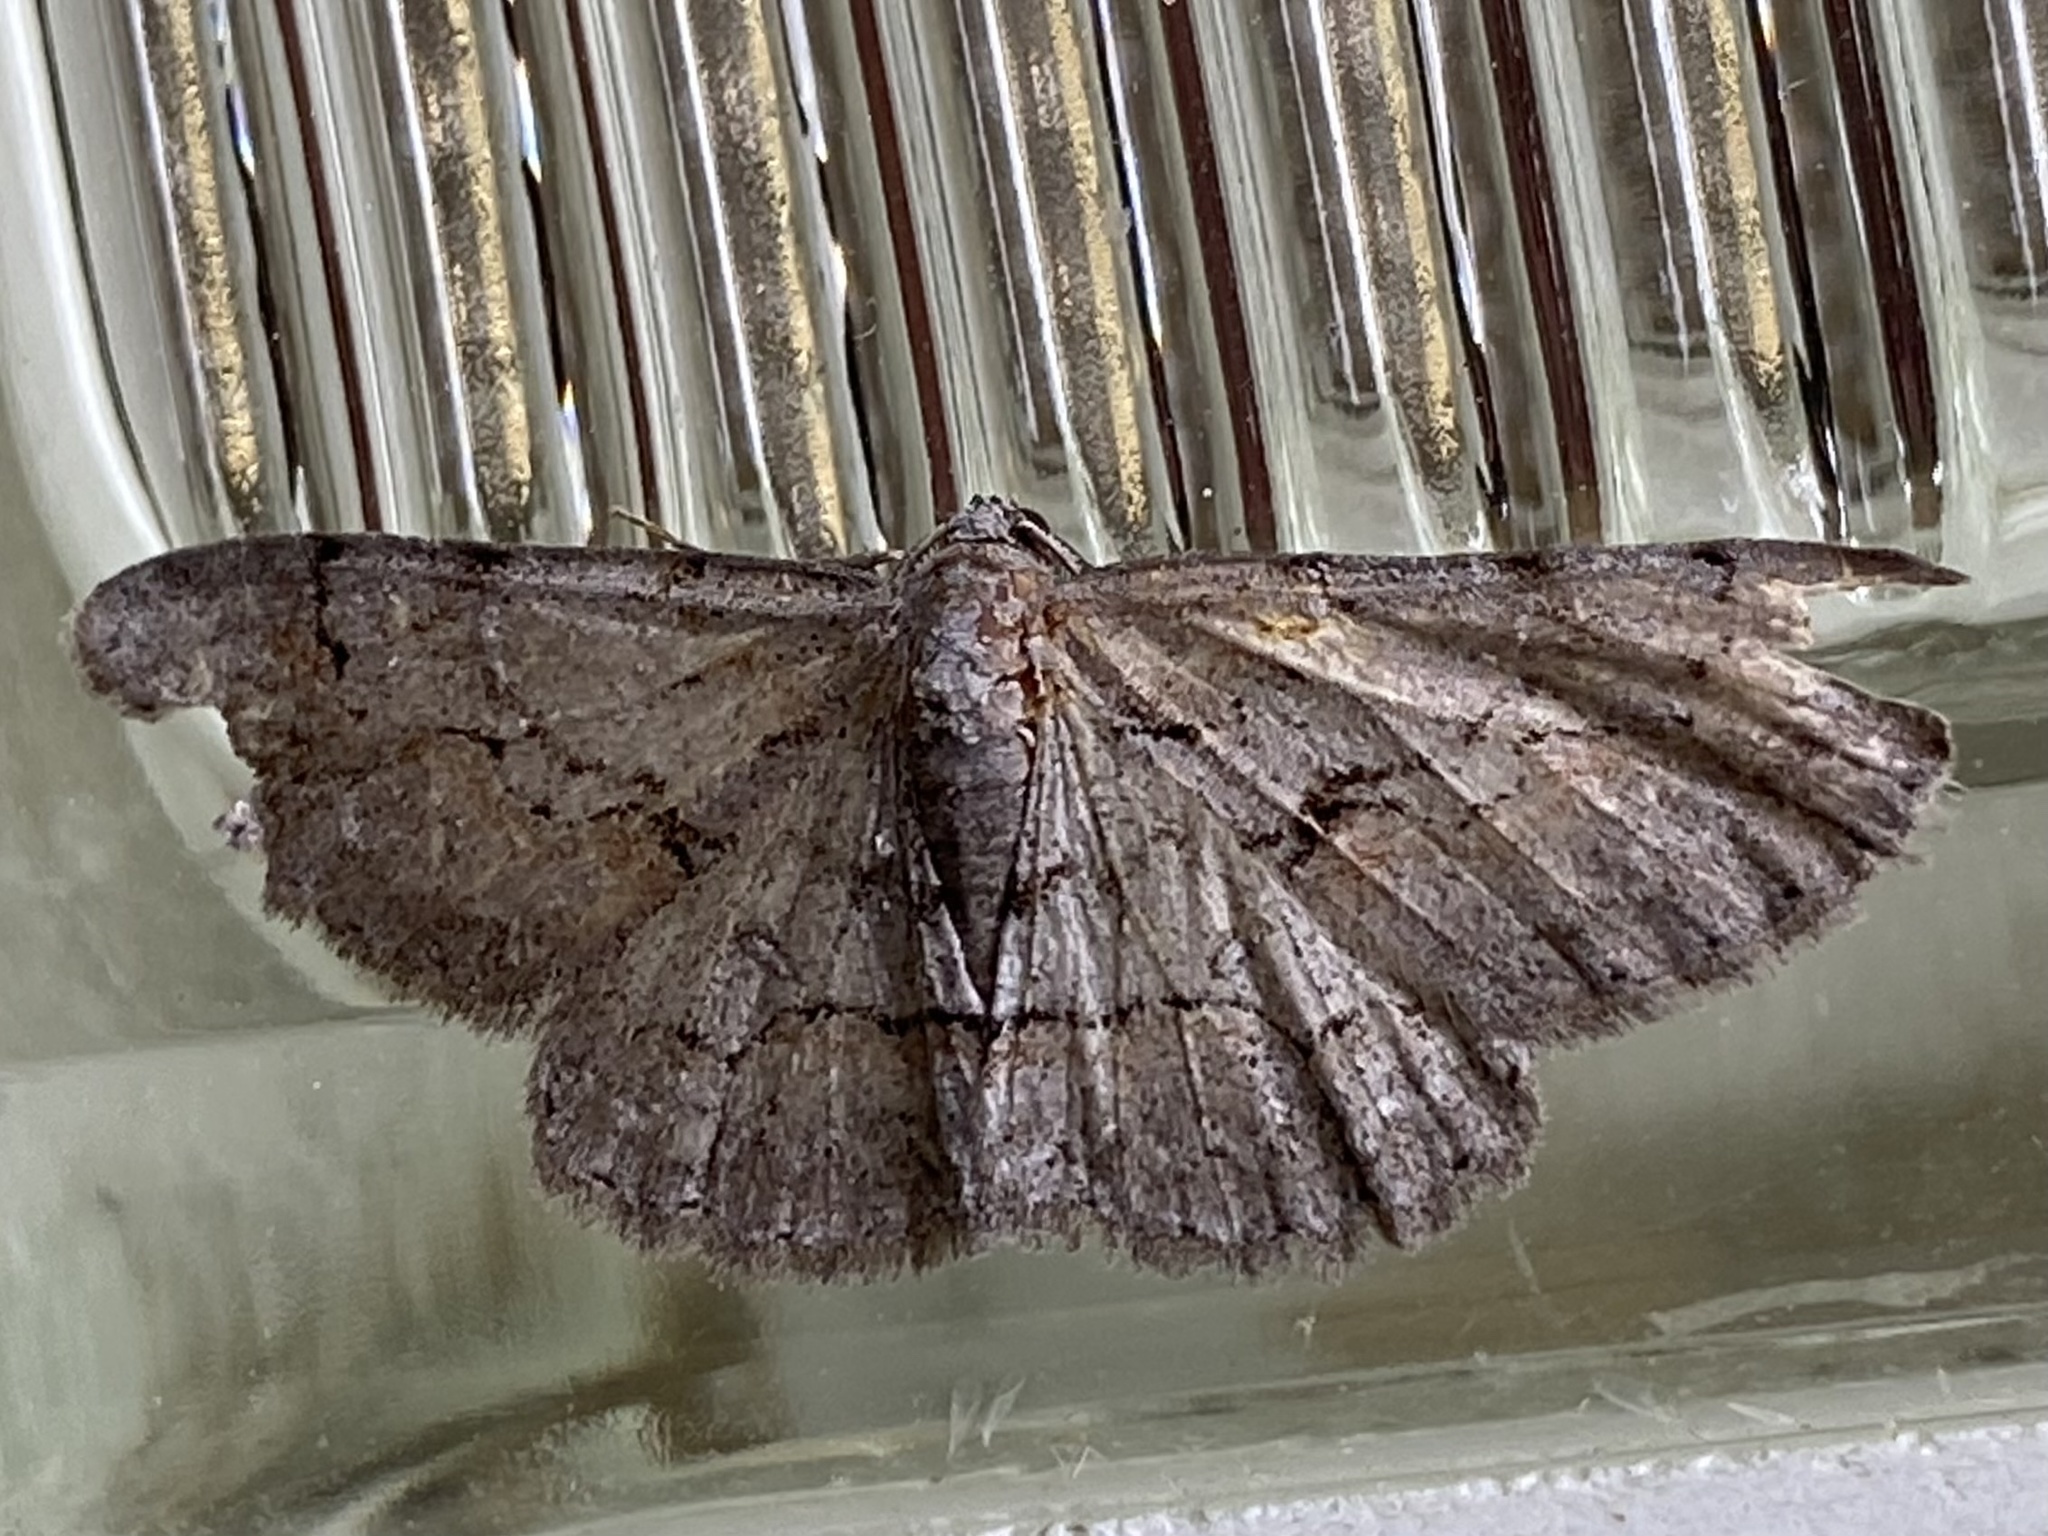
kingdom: Animalia
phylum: Arthropoda
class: Insecta
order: Lepidoptera
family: Geometridae
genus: Iridopsis
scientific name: Iridopsis vellivolata
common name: Large purplish gray
